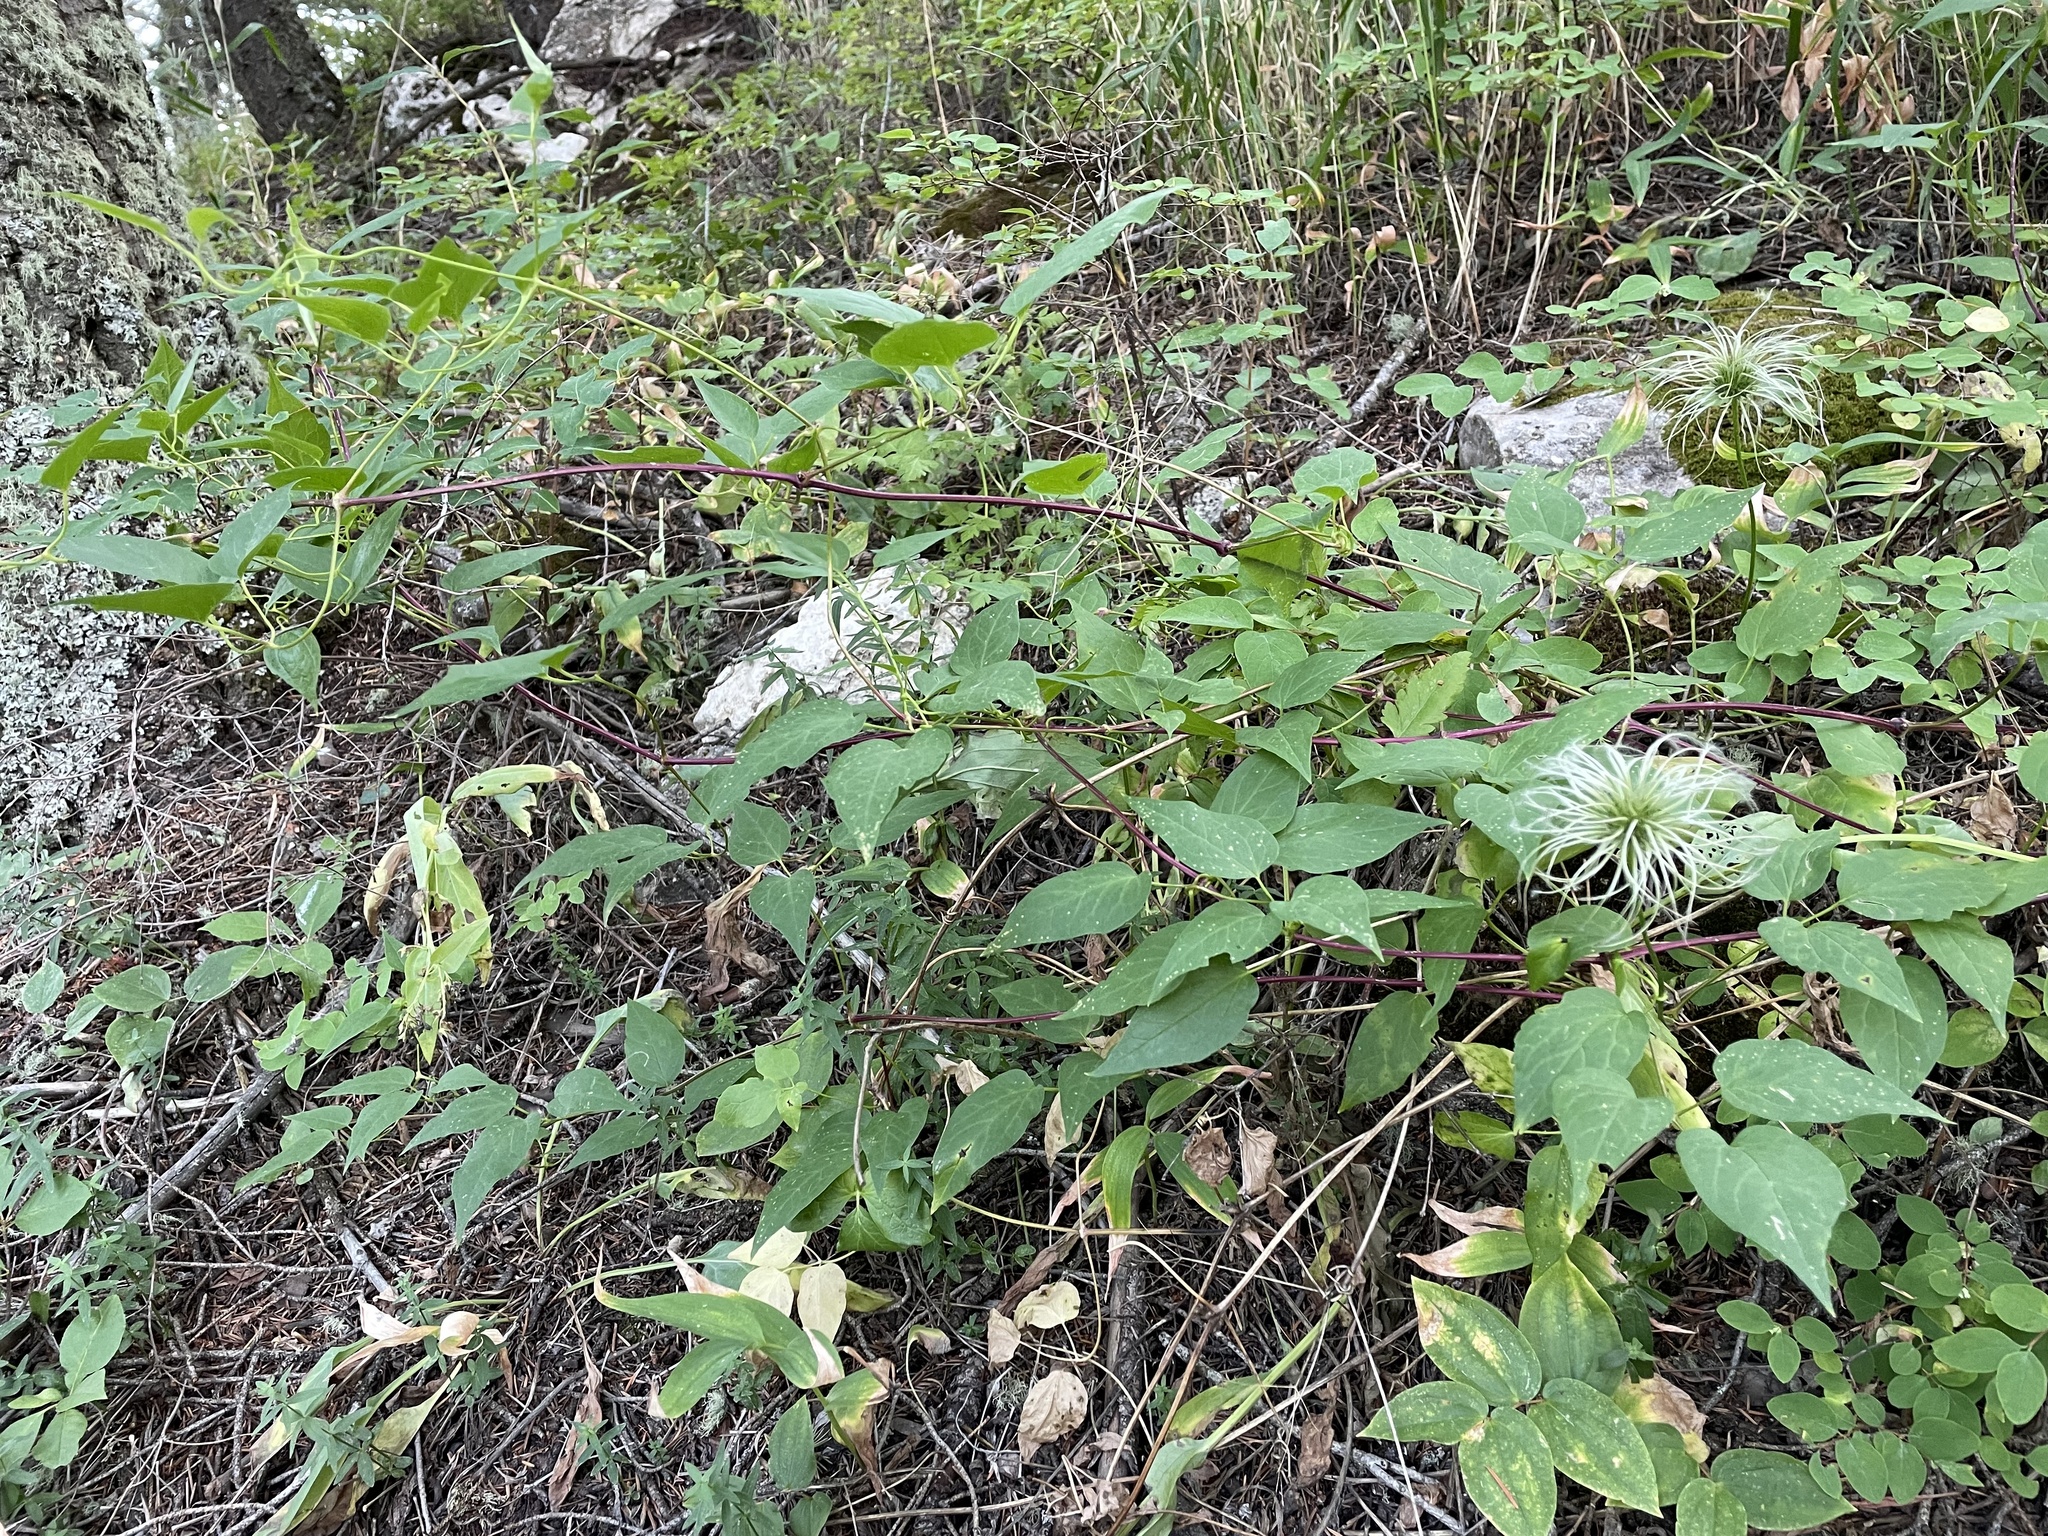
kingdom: Plantae
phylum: Tracheophyta
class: Magnoliopsida
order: Ranunculales
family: Ranunculaceae
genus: Clematis
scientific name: Clematis occidentalis
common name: Purple clematis
